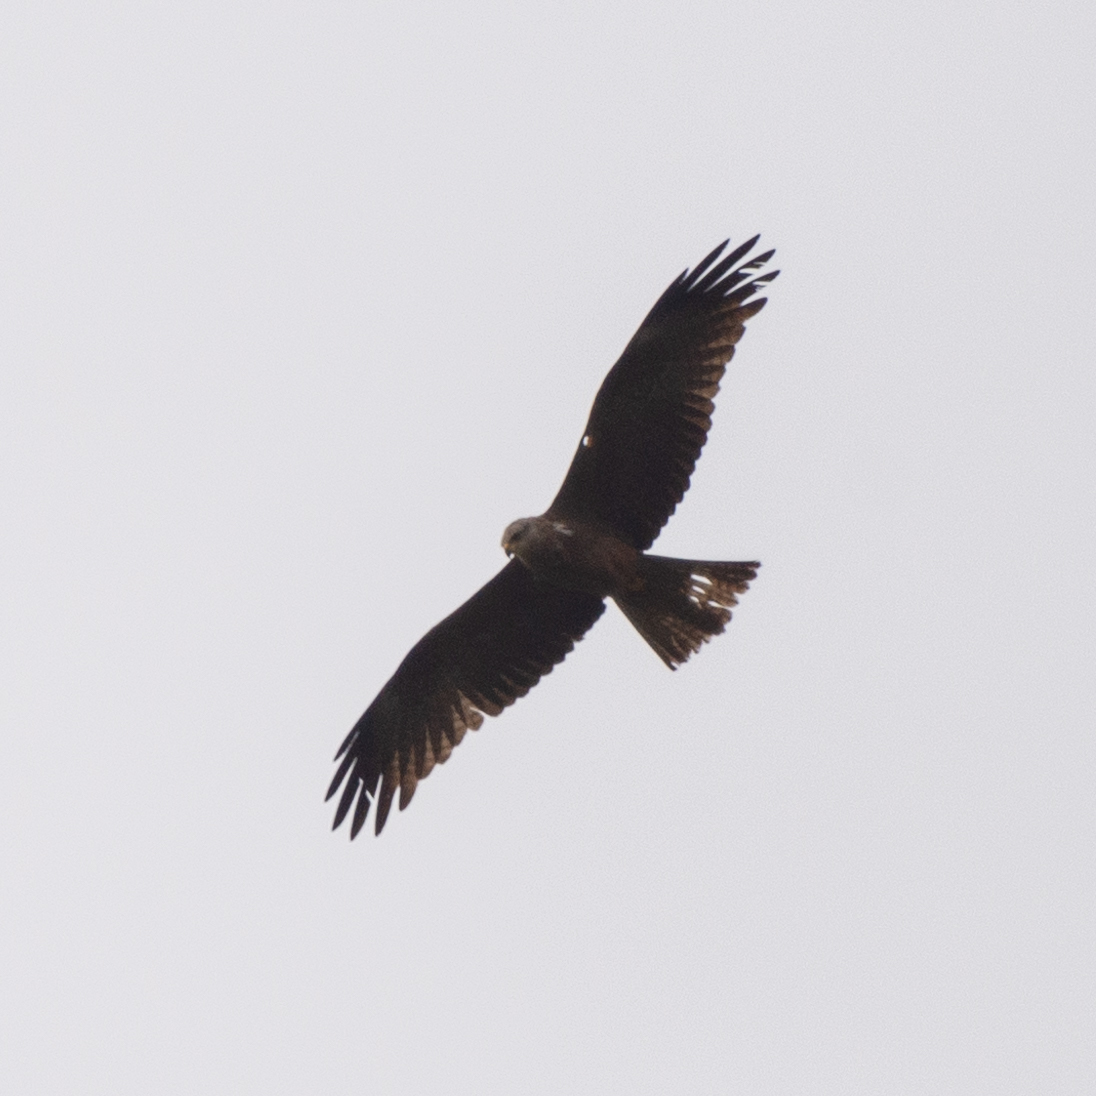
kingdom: Animalia
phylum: Chordata
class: Aves
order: Accipitriformes
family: Accipitridae
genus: Milvus
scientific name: Milvus migrans
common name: Black kite
